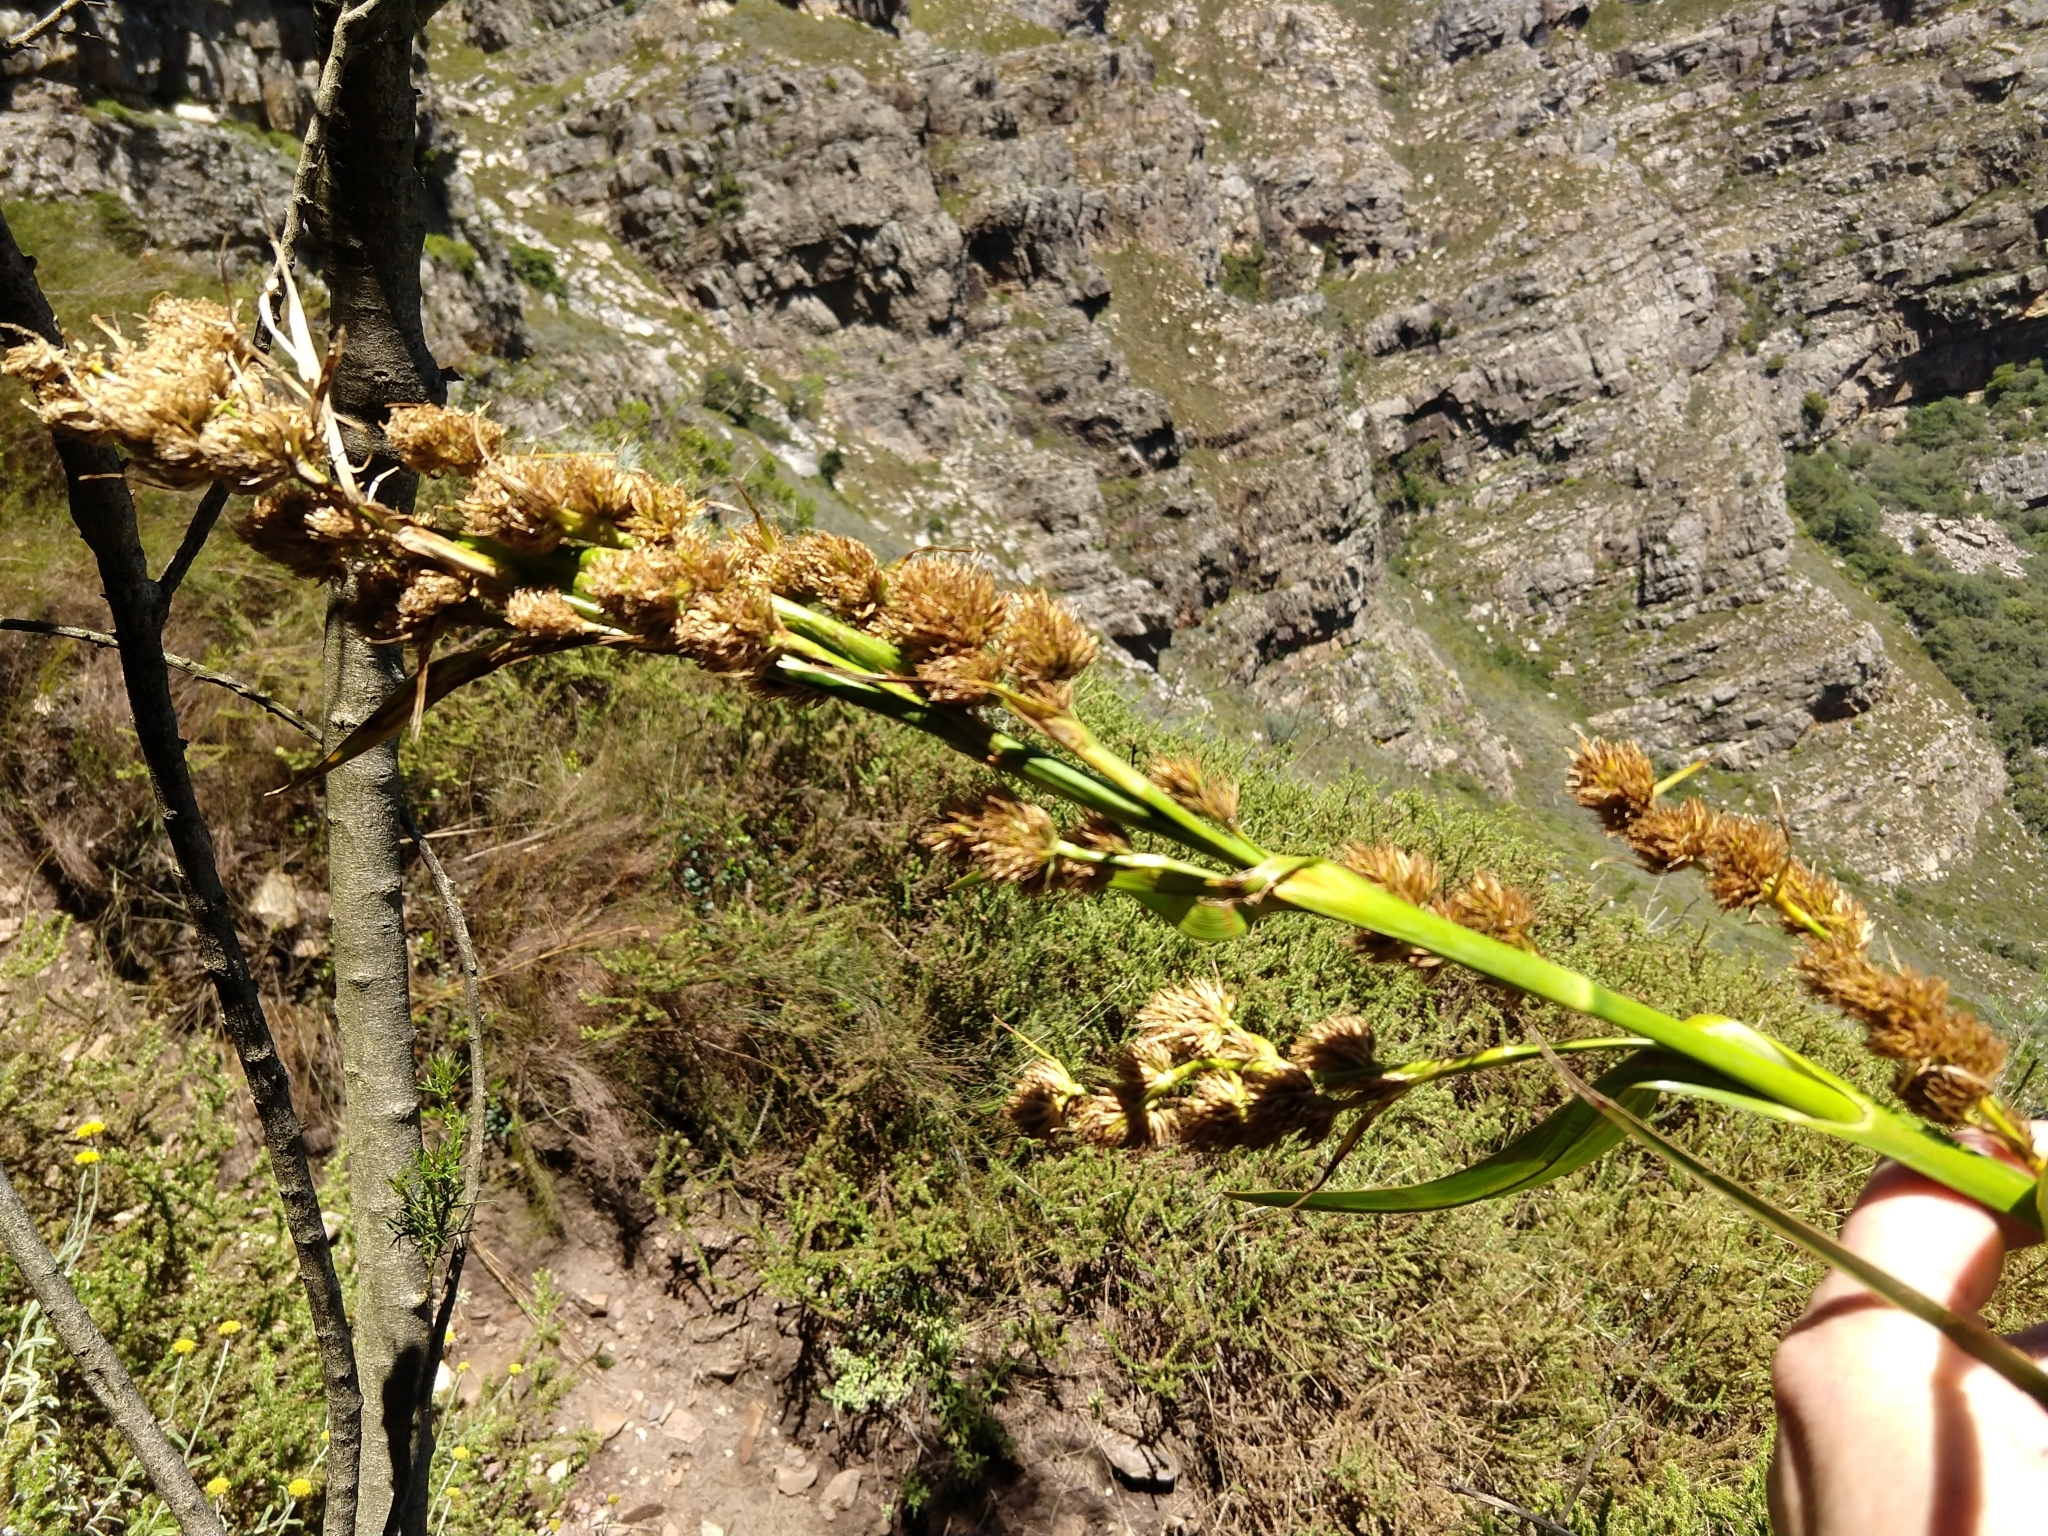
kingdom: Plantae
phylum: Tracheophyta
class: Liliopsida
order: Poales
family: Cyperaceae
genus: Carpha
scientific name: Carpha glomerata
